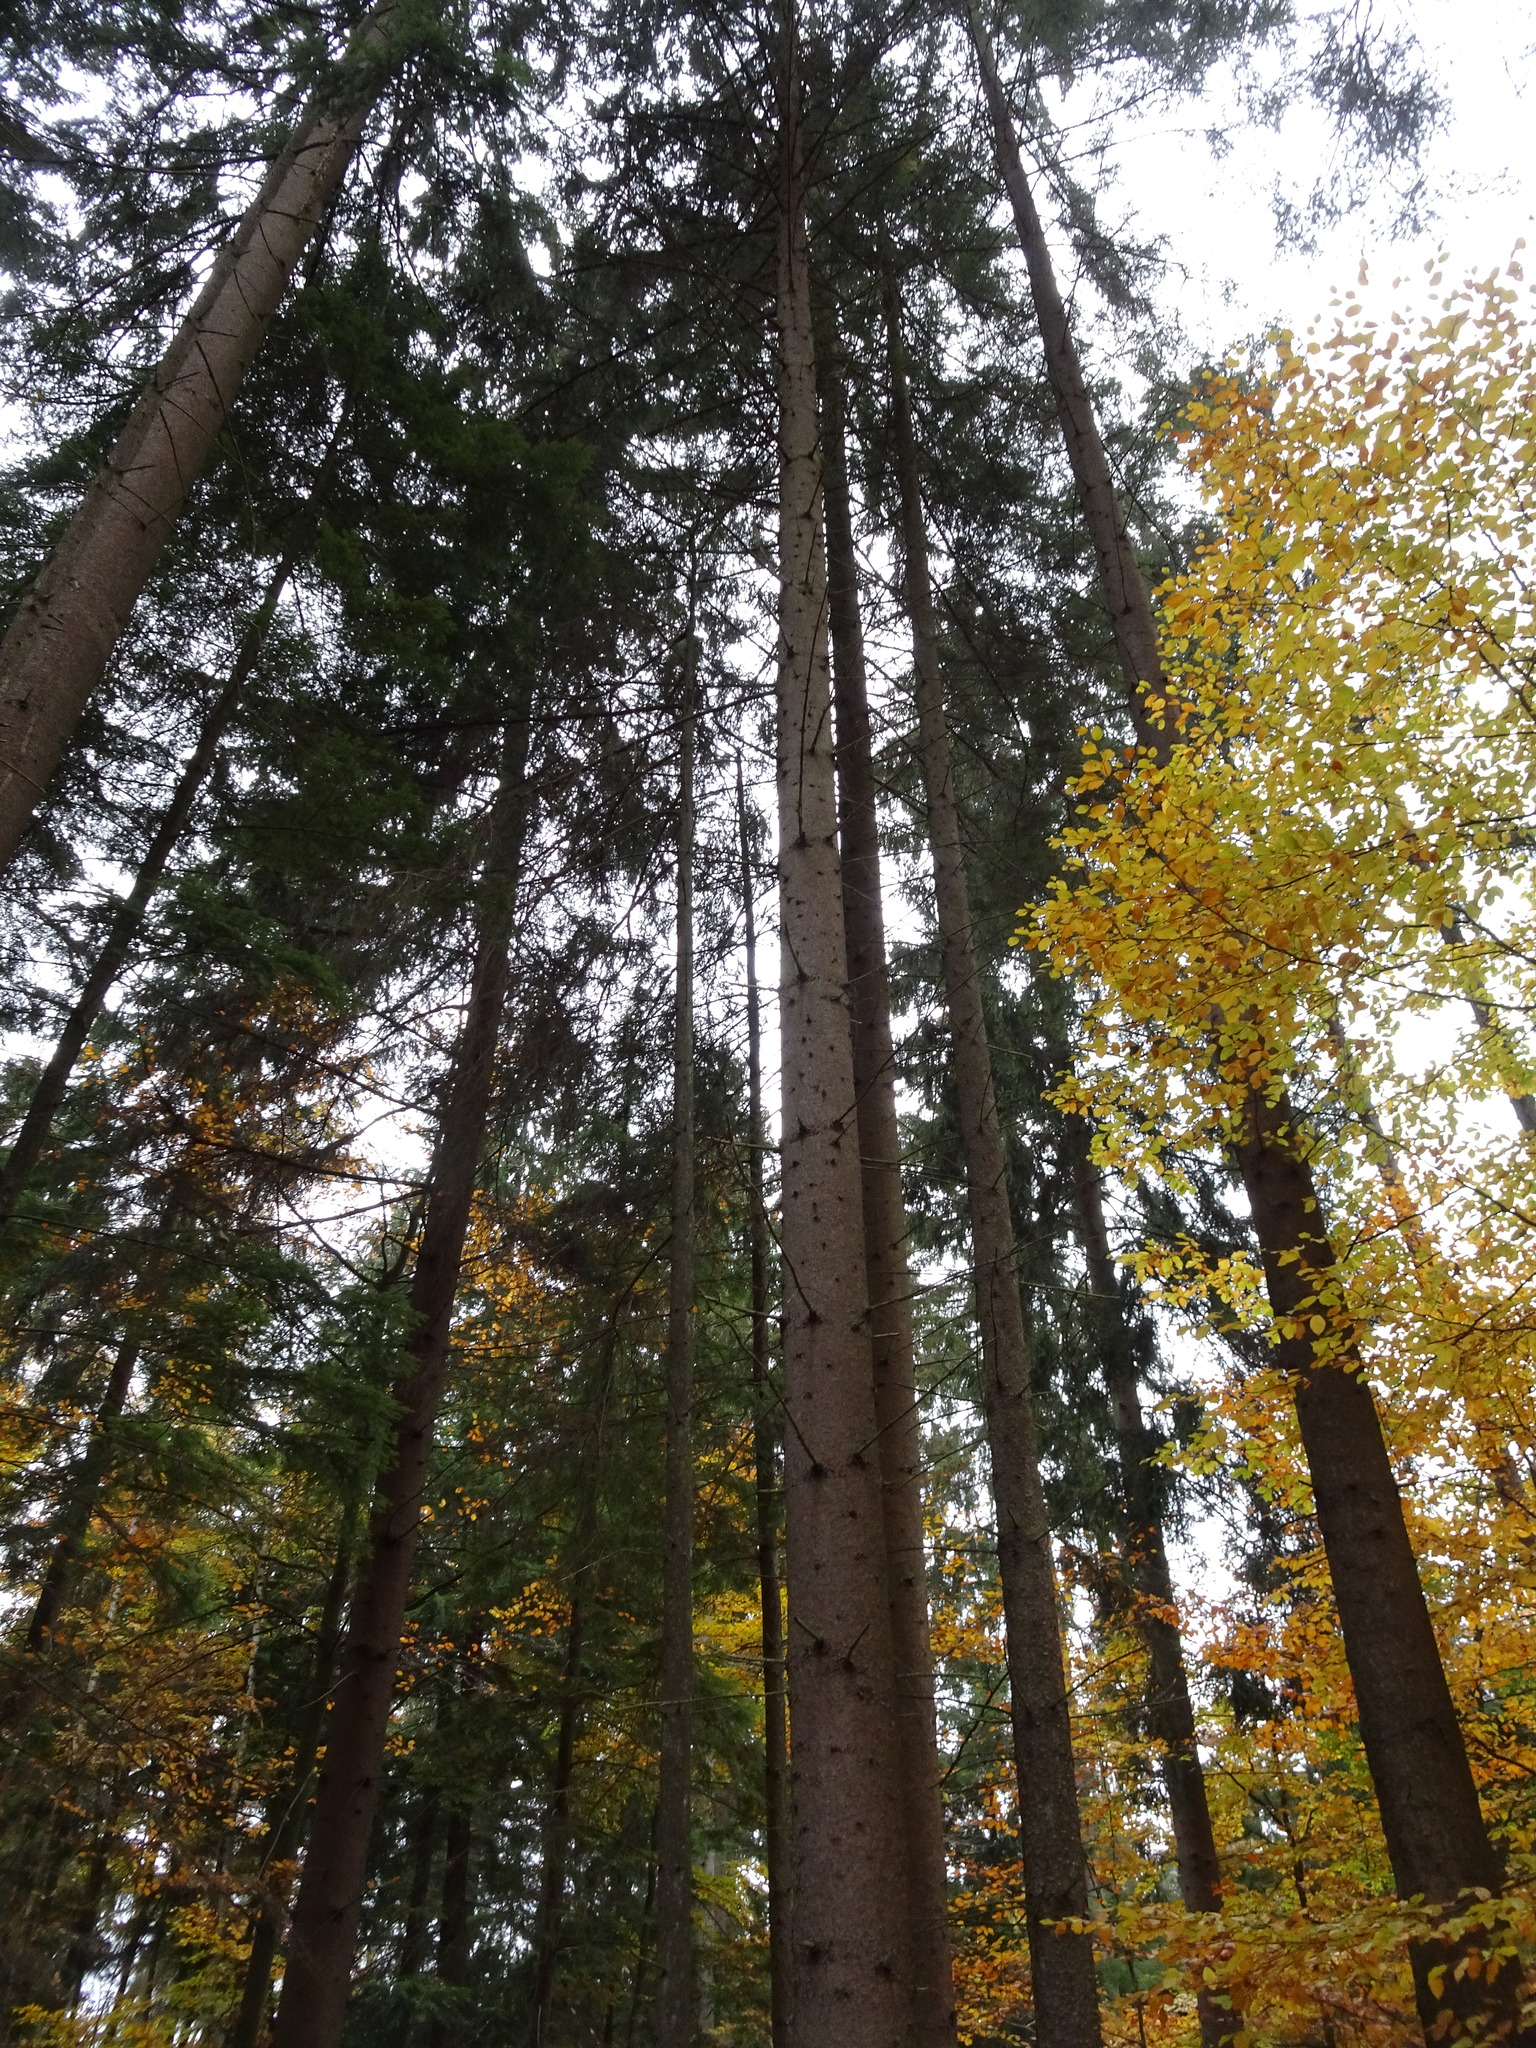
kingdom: Plantae
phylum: Tracheophyta
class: Pinopsida
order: Pinales
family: Pinaceae
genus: Picea
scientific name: Picea abies
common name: Norway spruce
